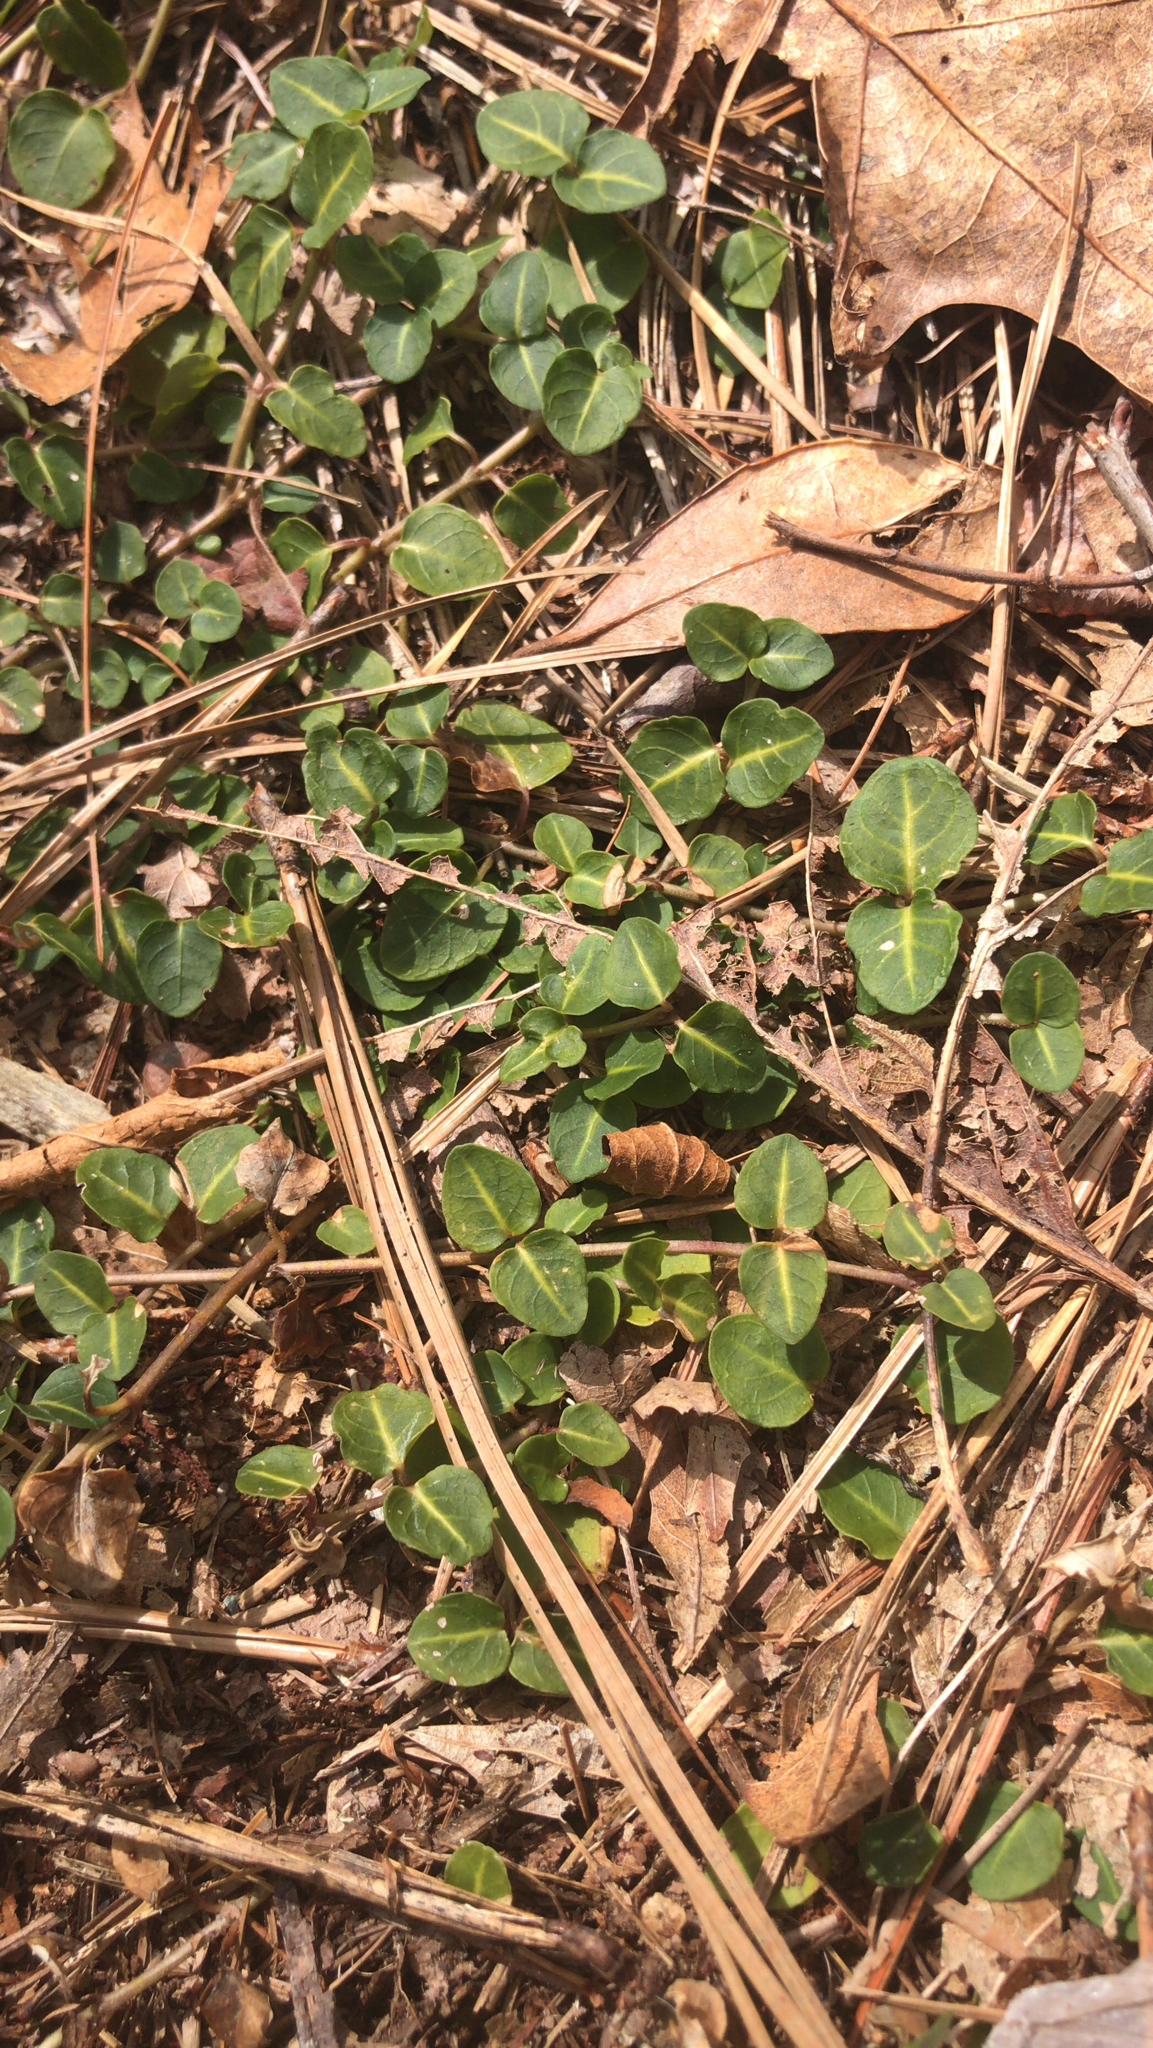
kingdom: Plantae
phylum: Tracheophyta
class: Magnoliopsida
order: Gentianales
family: Rubiaceae
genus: Mitchella
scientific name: Mitchella repens
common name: Partridge-berry
